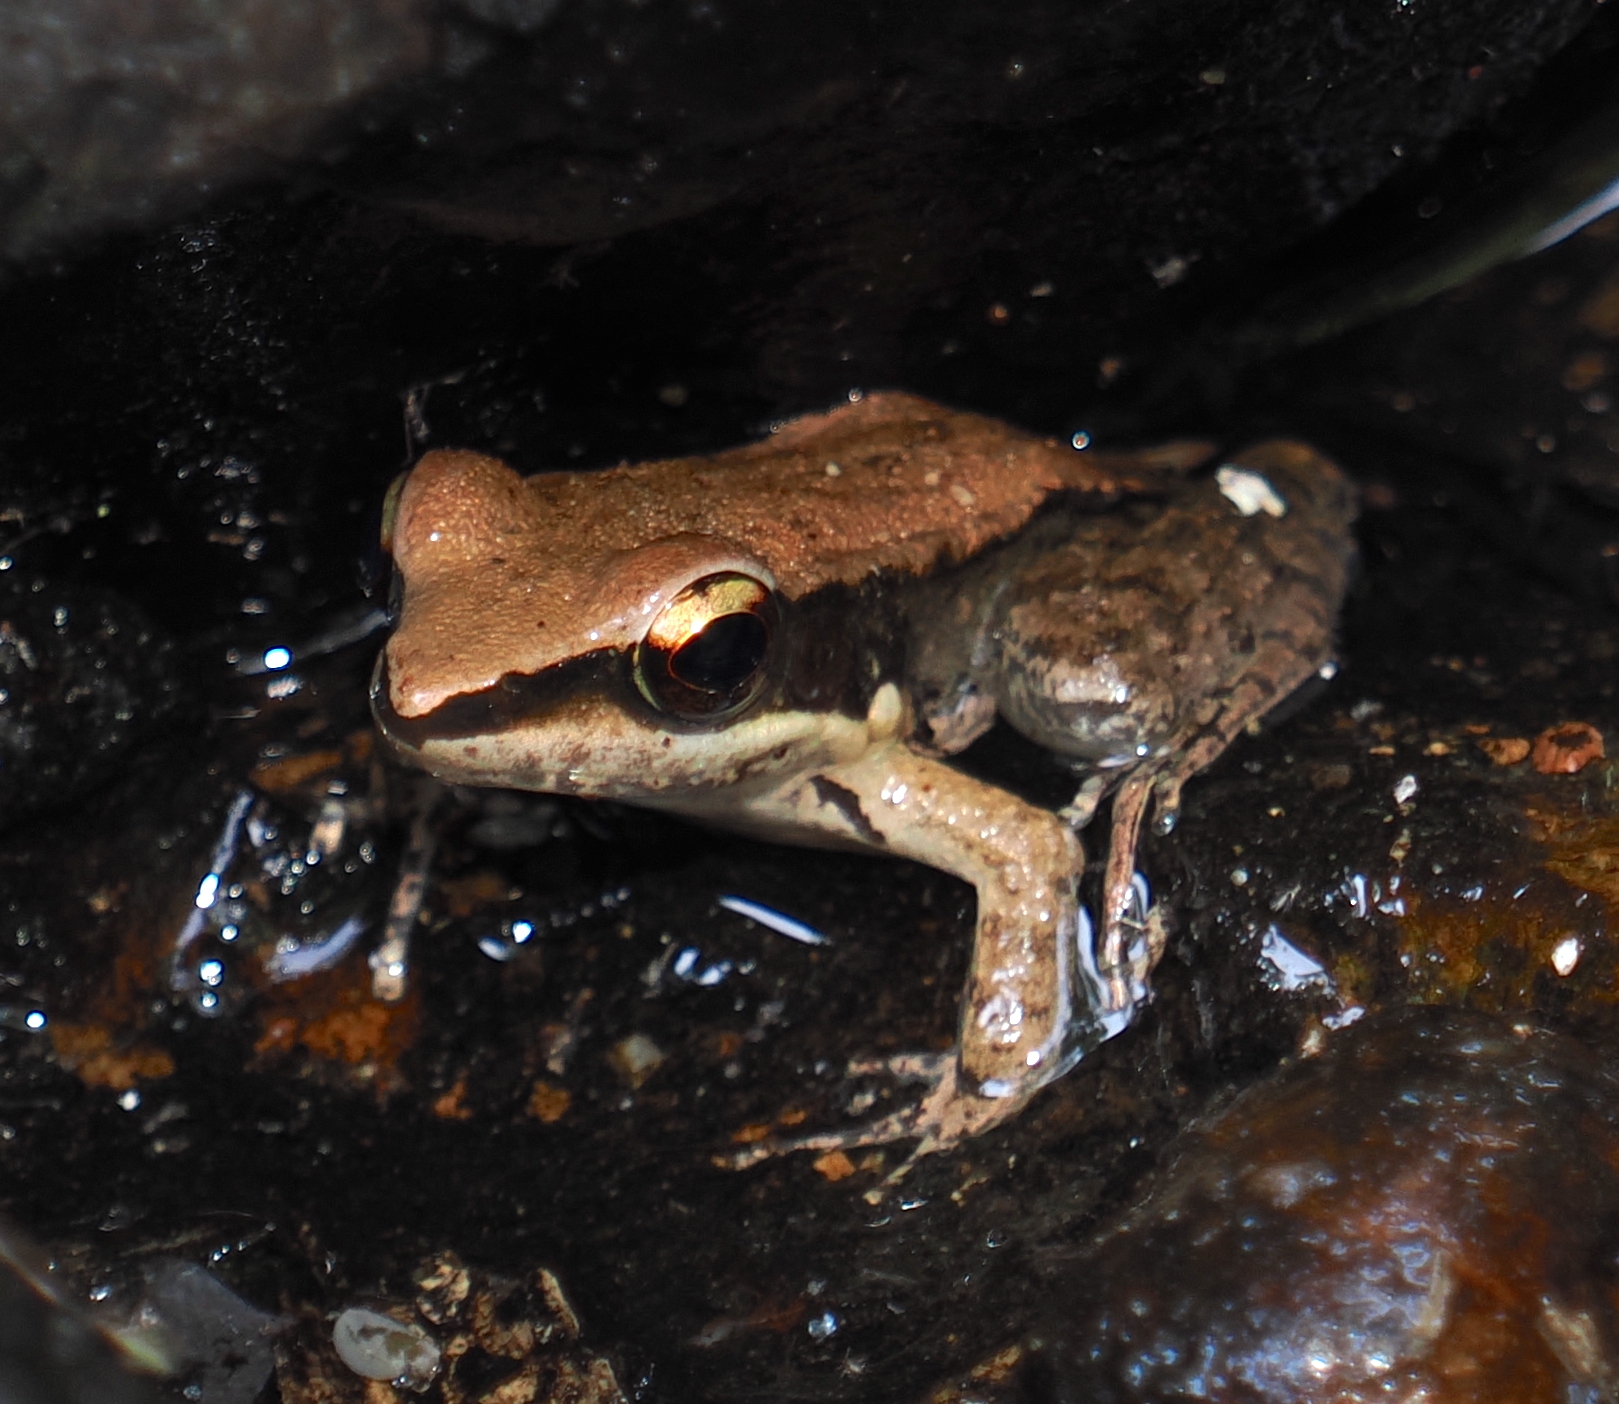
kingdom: Animalia
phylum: Chordata
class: Amphibia
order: Anura
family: Ranidae
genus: Sylvirana
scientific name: Sylvirana mortenseni
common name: Koh chang island frog
